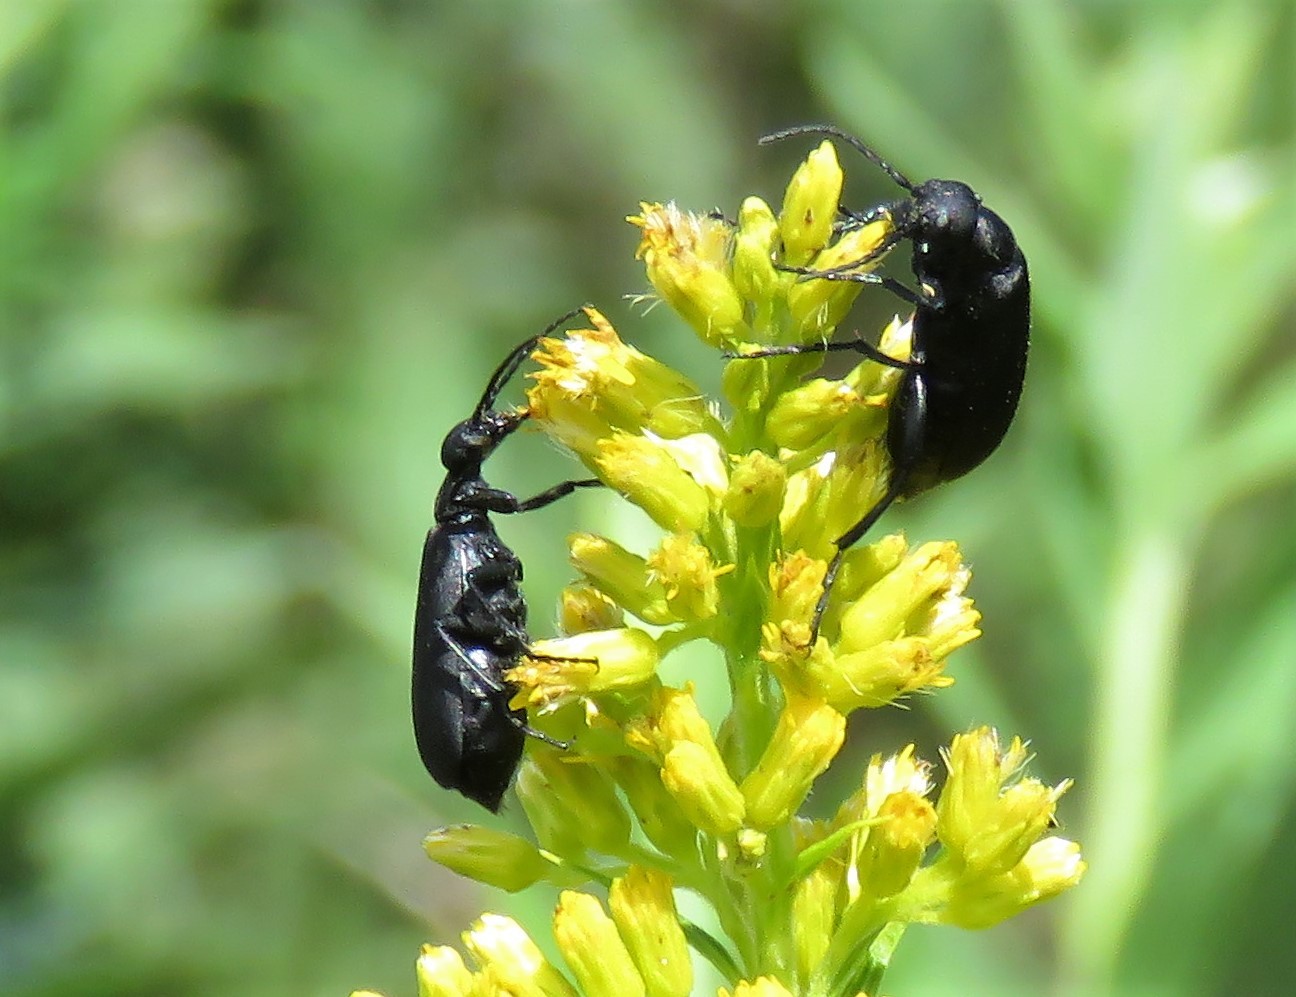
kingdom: Animalia
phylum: Arthropoda
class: Insecta
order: Coleoptera
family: Meloidae
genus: Epicauta
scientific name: Epicauta pensylvanica
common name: Black blister beetle
